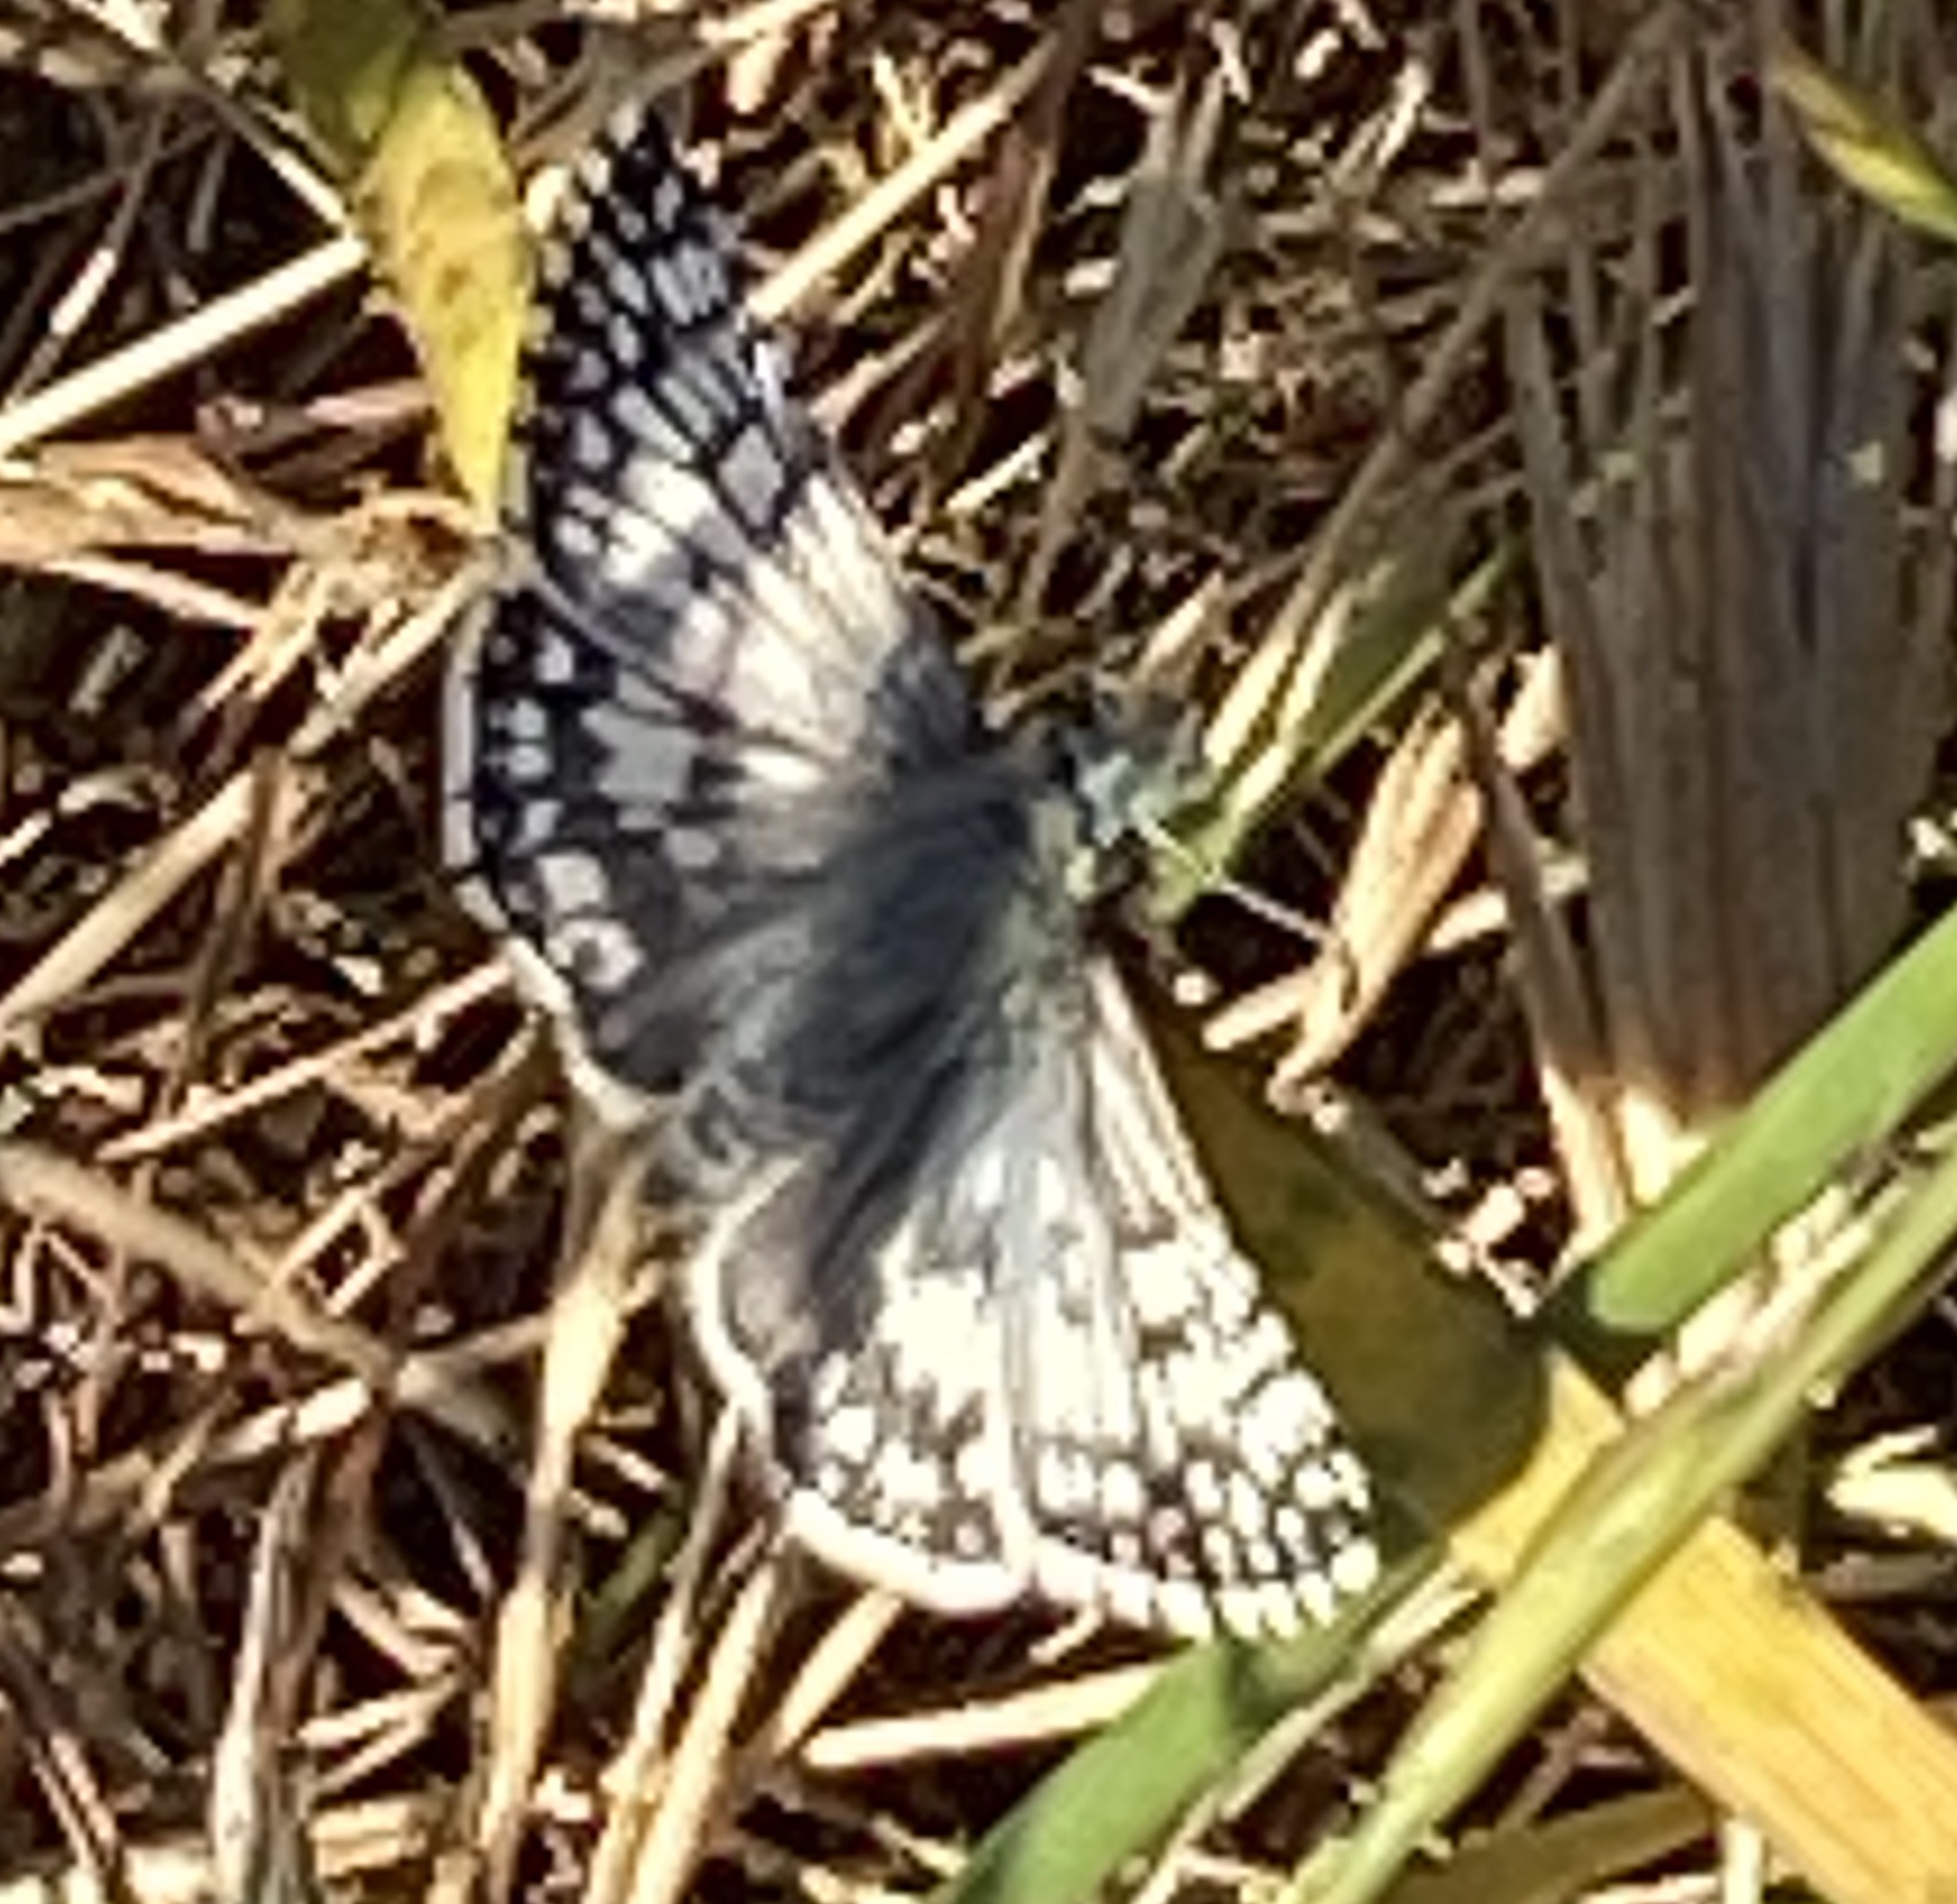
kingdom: Animalia
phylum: Arthropoda
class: Insecta
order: Lepidoptera
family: Hesperiidae
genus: Burnsius
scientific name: Burnsius communis
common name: Common checkered-skipper
